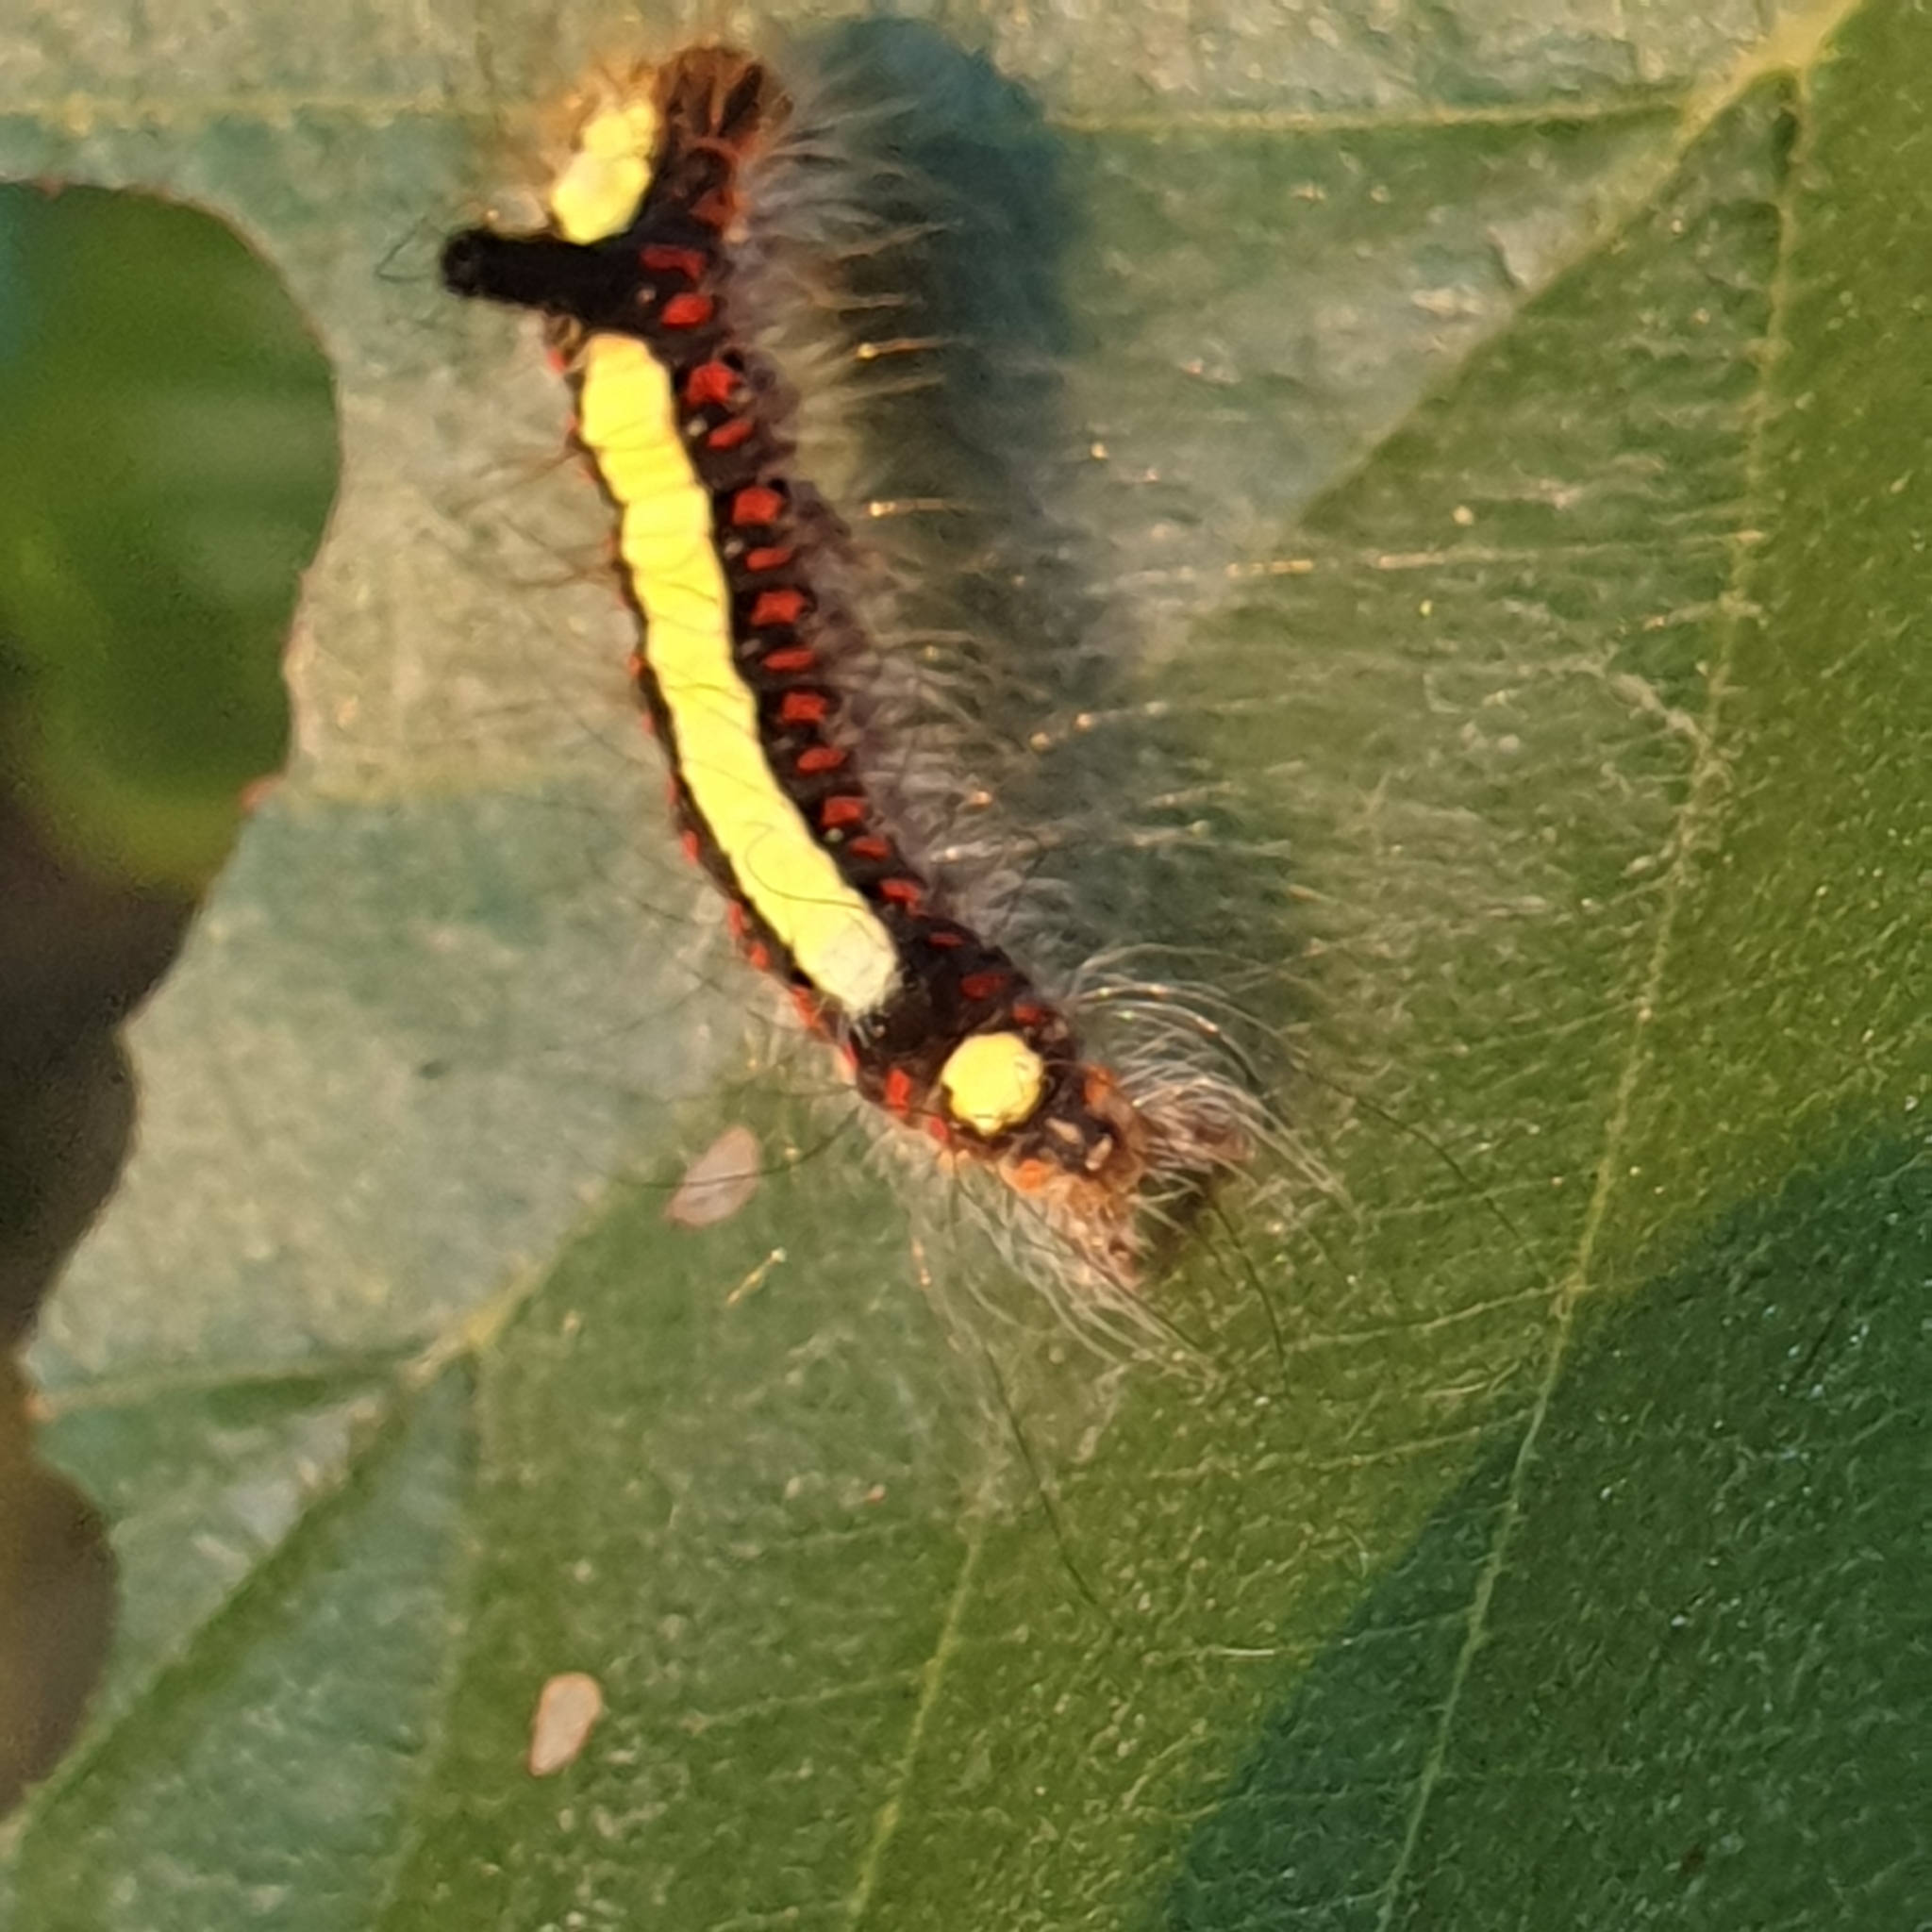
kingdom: Animalia
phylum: Arthropoda
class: Insecta
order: Lepidoptera
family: Noctuidae
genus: Acronicta
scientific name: Acronicta psi
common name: Grey dagger
